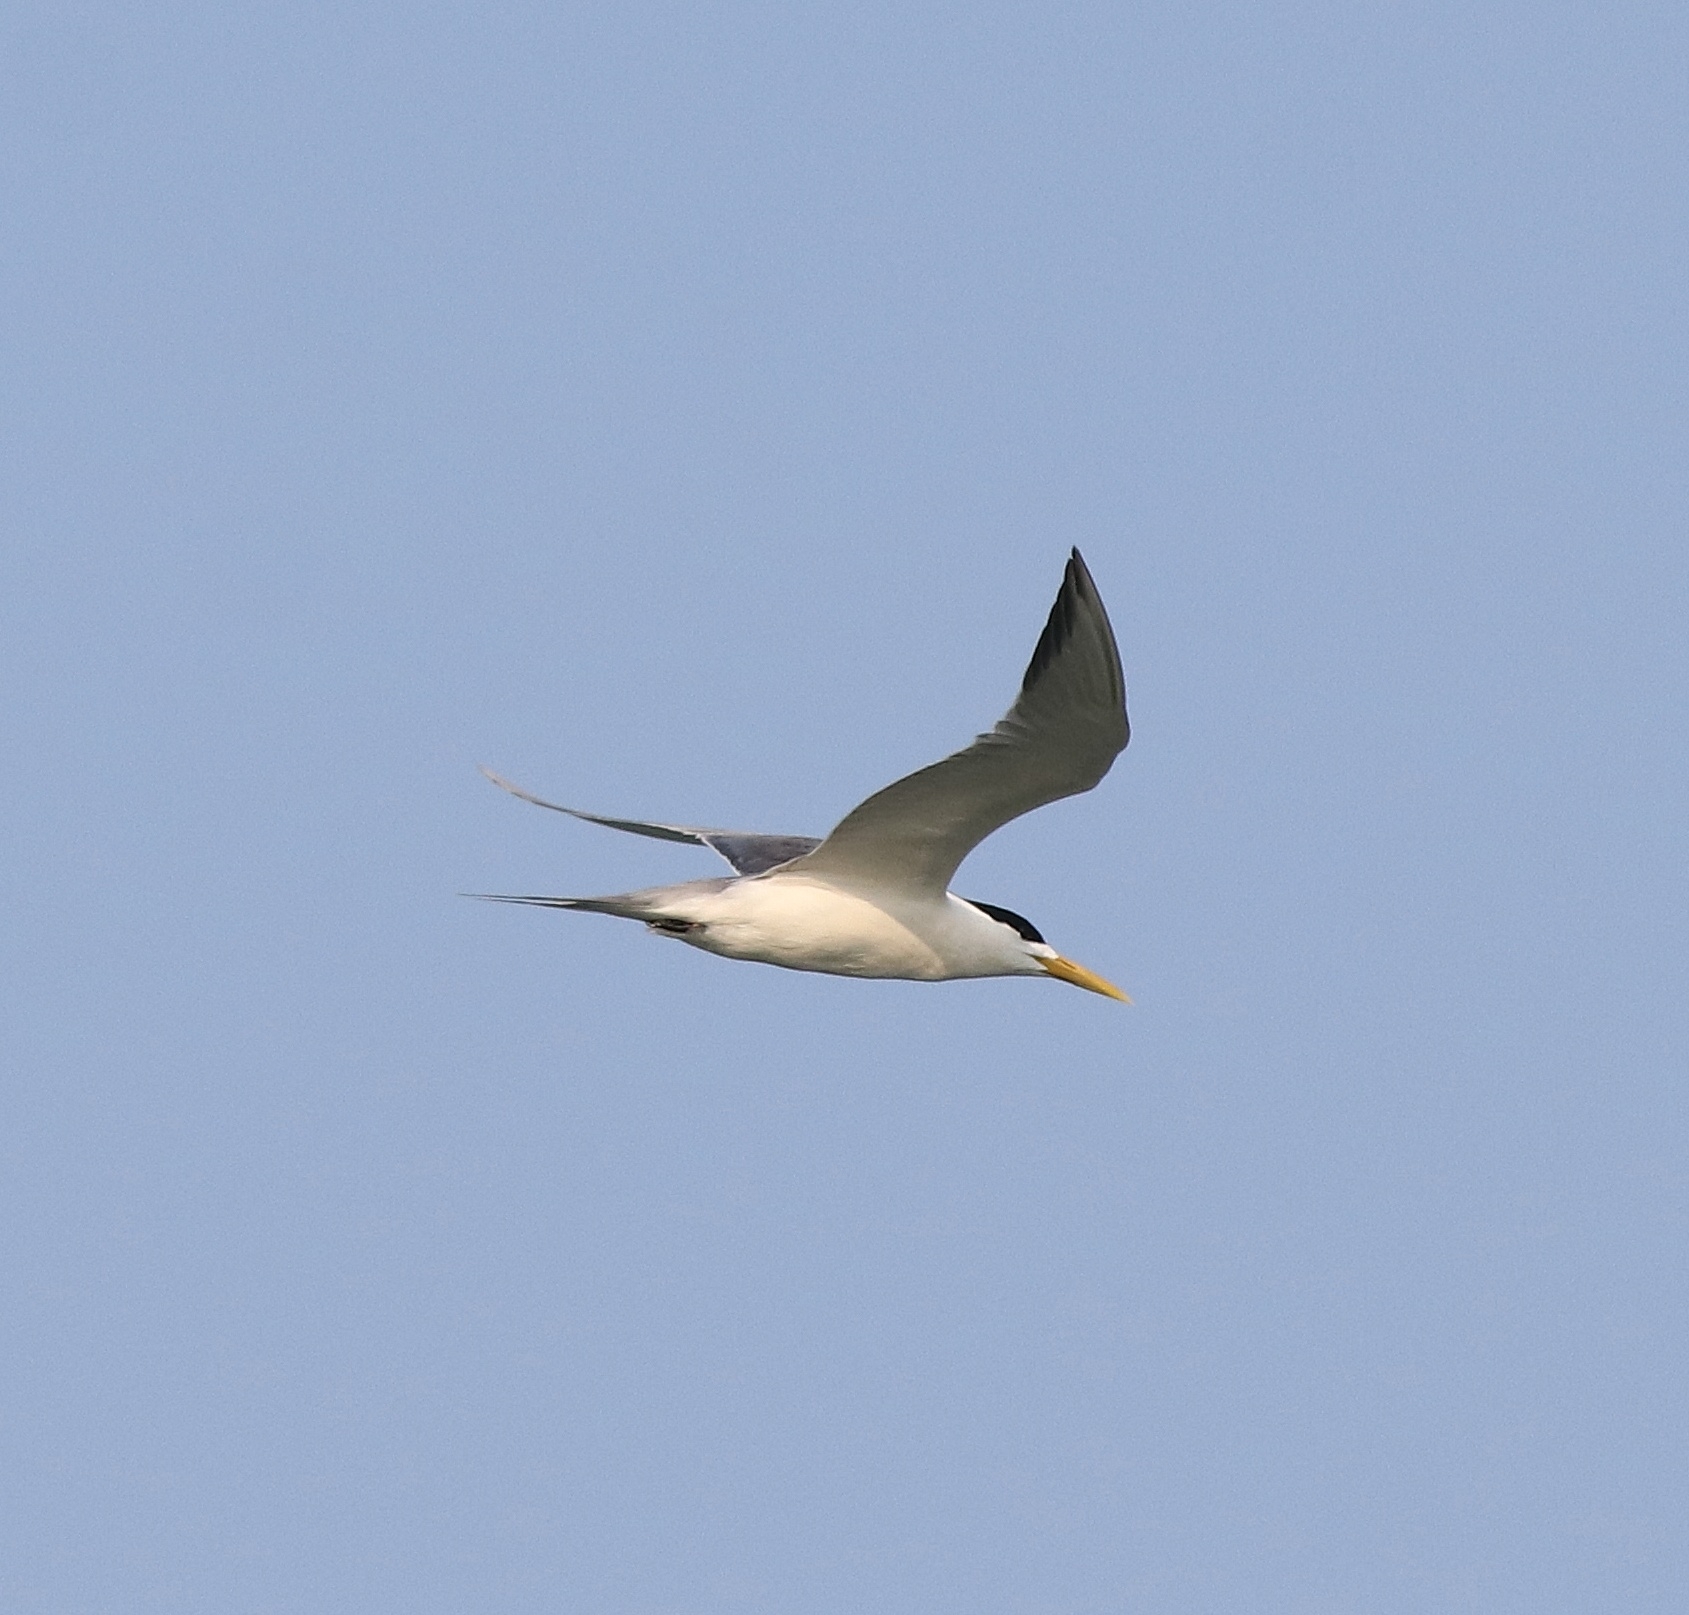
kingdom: Animalia
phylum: Chordata
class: Aves
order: Charadriiformes
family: Laridae
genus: Thalasseus
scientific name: Thalasseus bergii
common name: Greater crested tern
